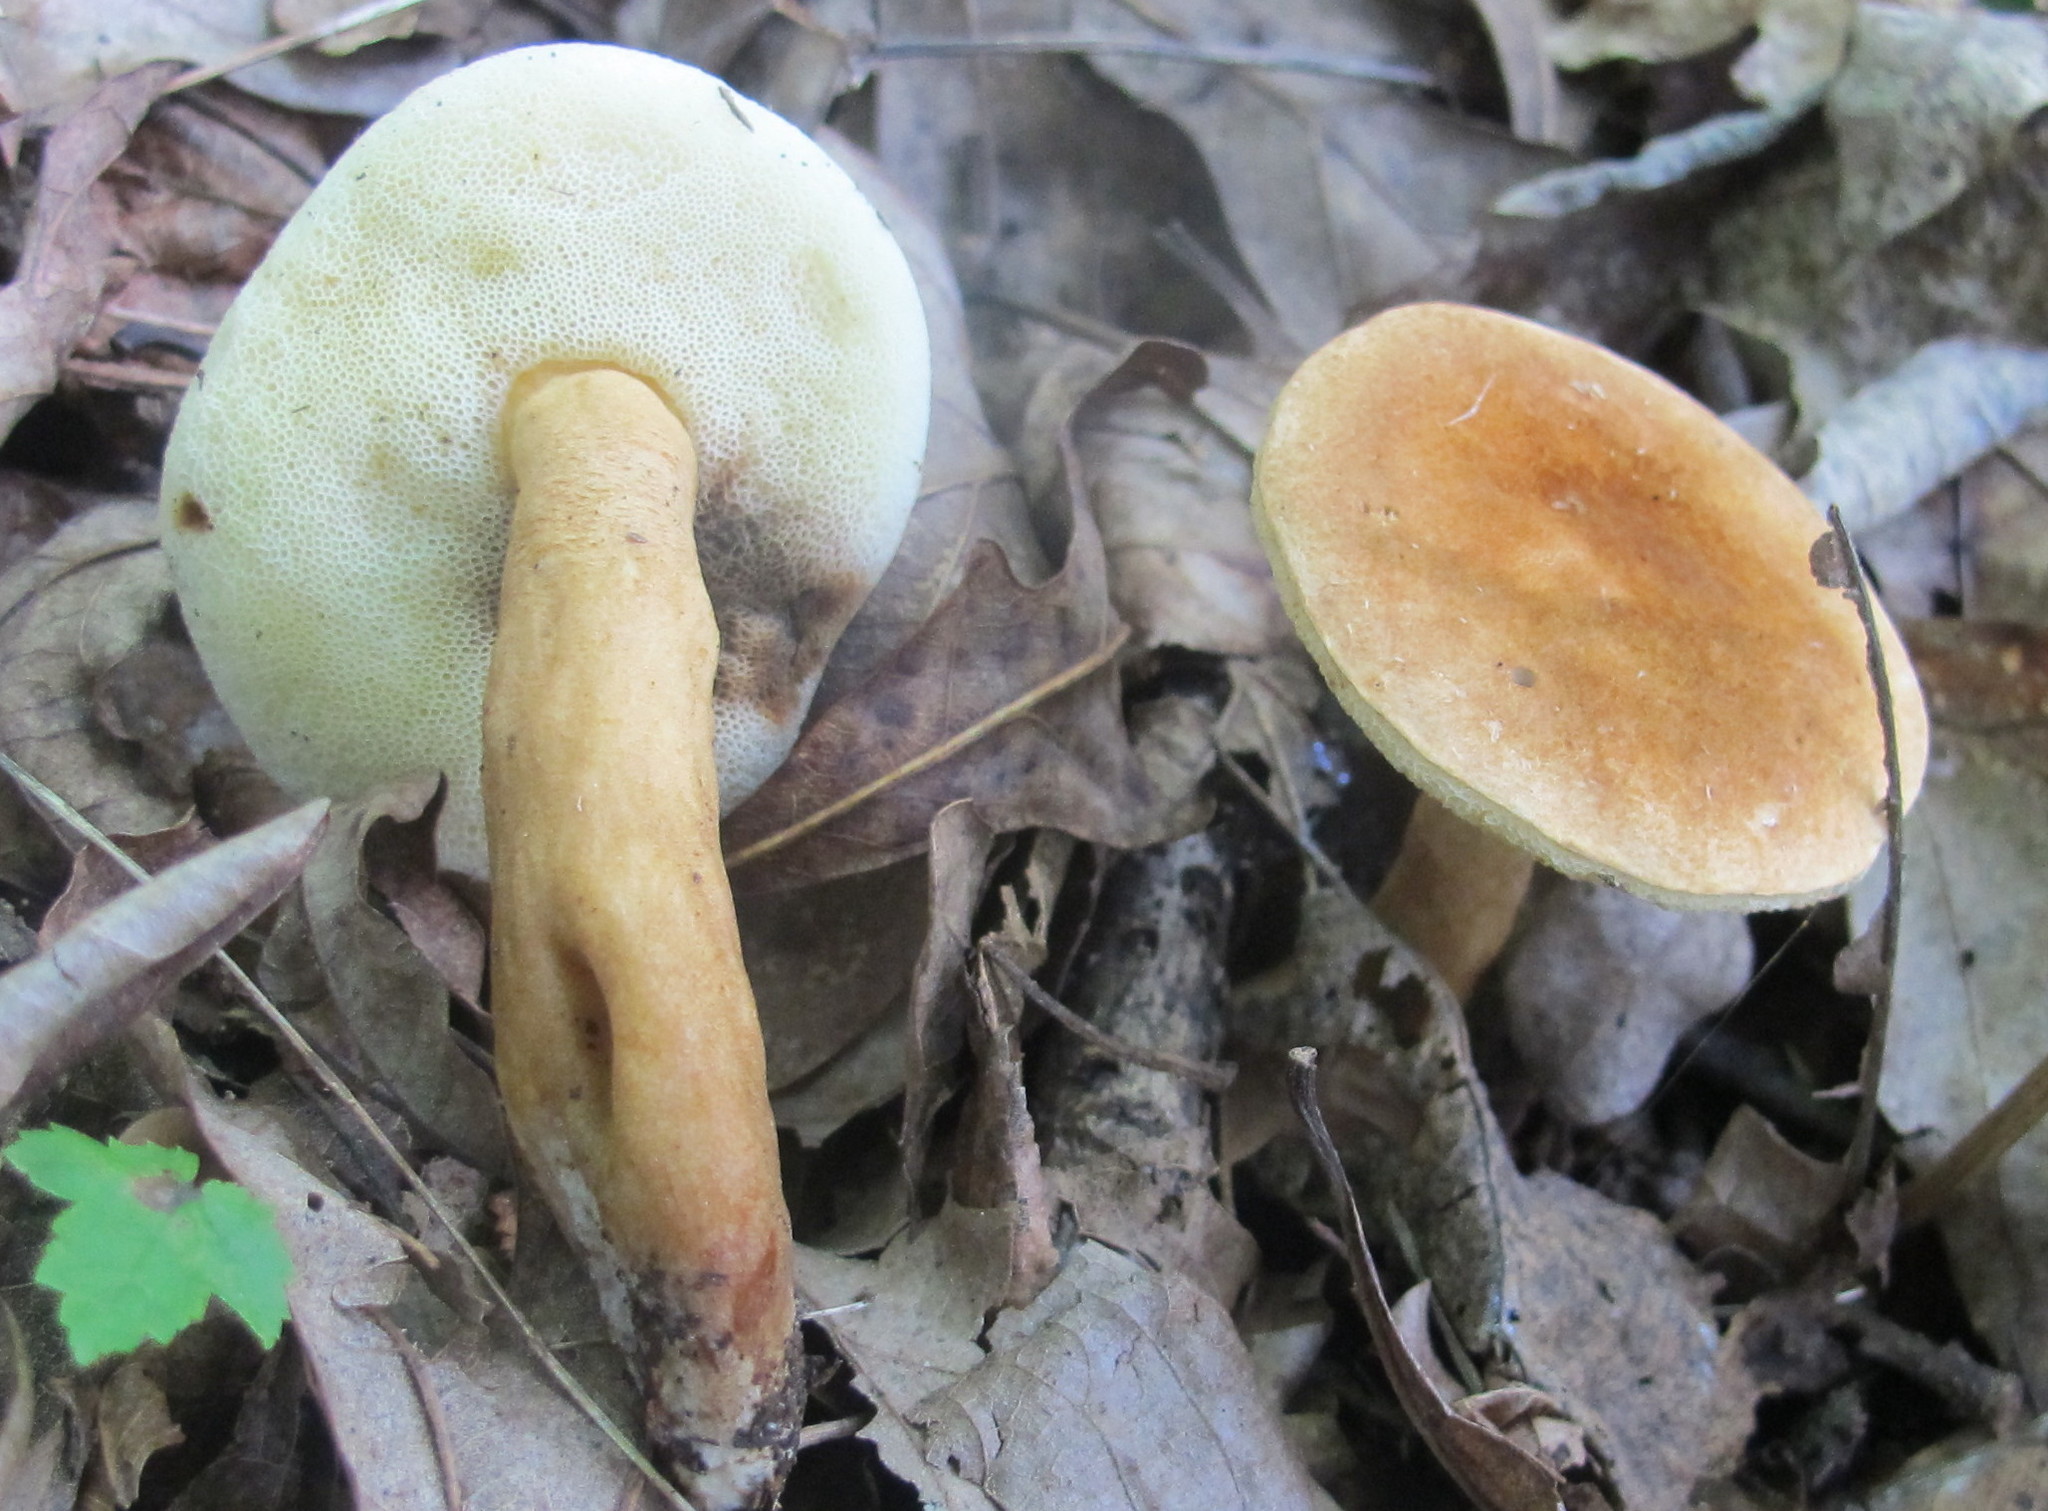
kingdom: Fungi
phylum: Basidiomycota
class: Agaricomycetes
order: Boletales
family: Gyroporaceae
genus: Gyroporus
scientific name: Gyroporus castaneus
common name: Chestnut bolete
